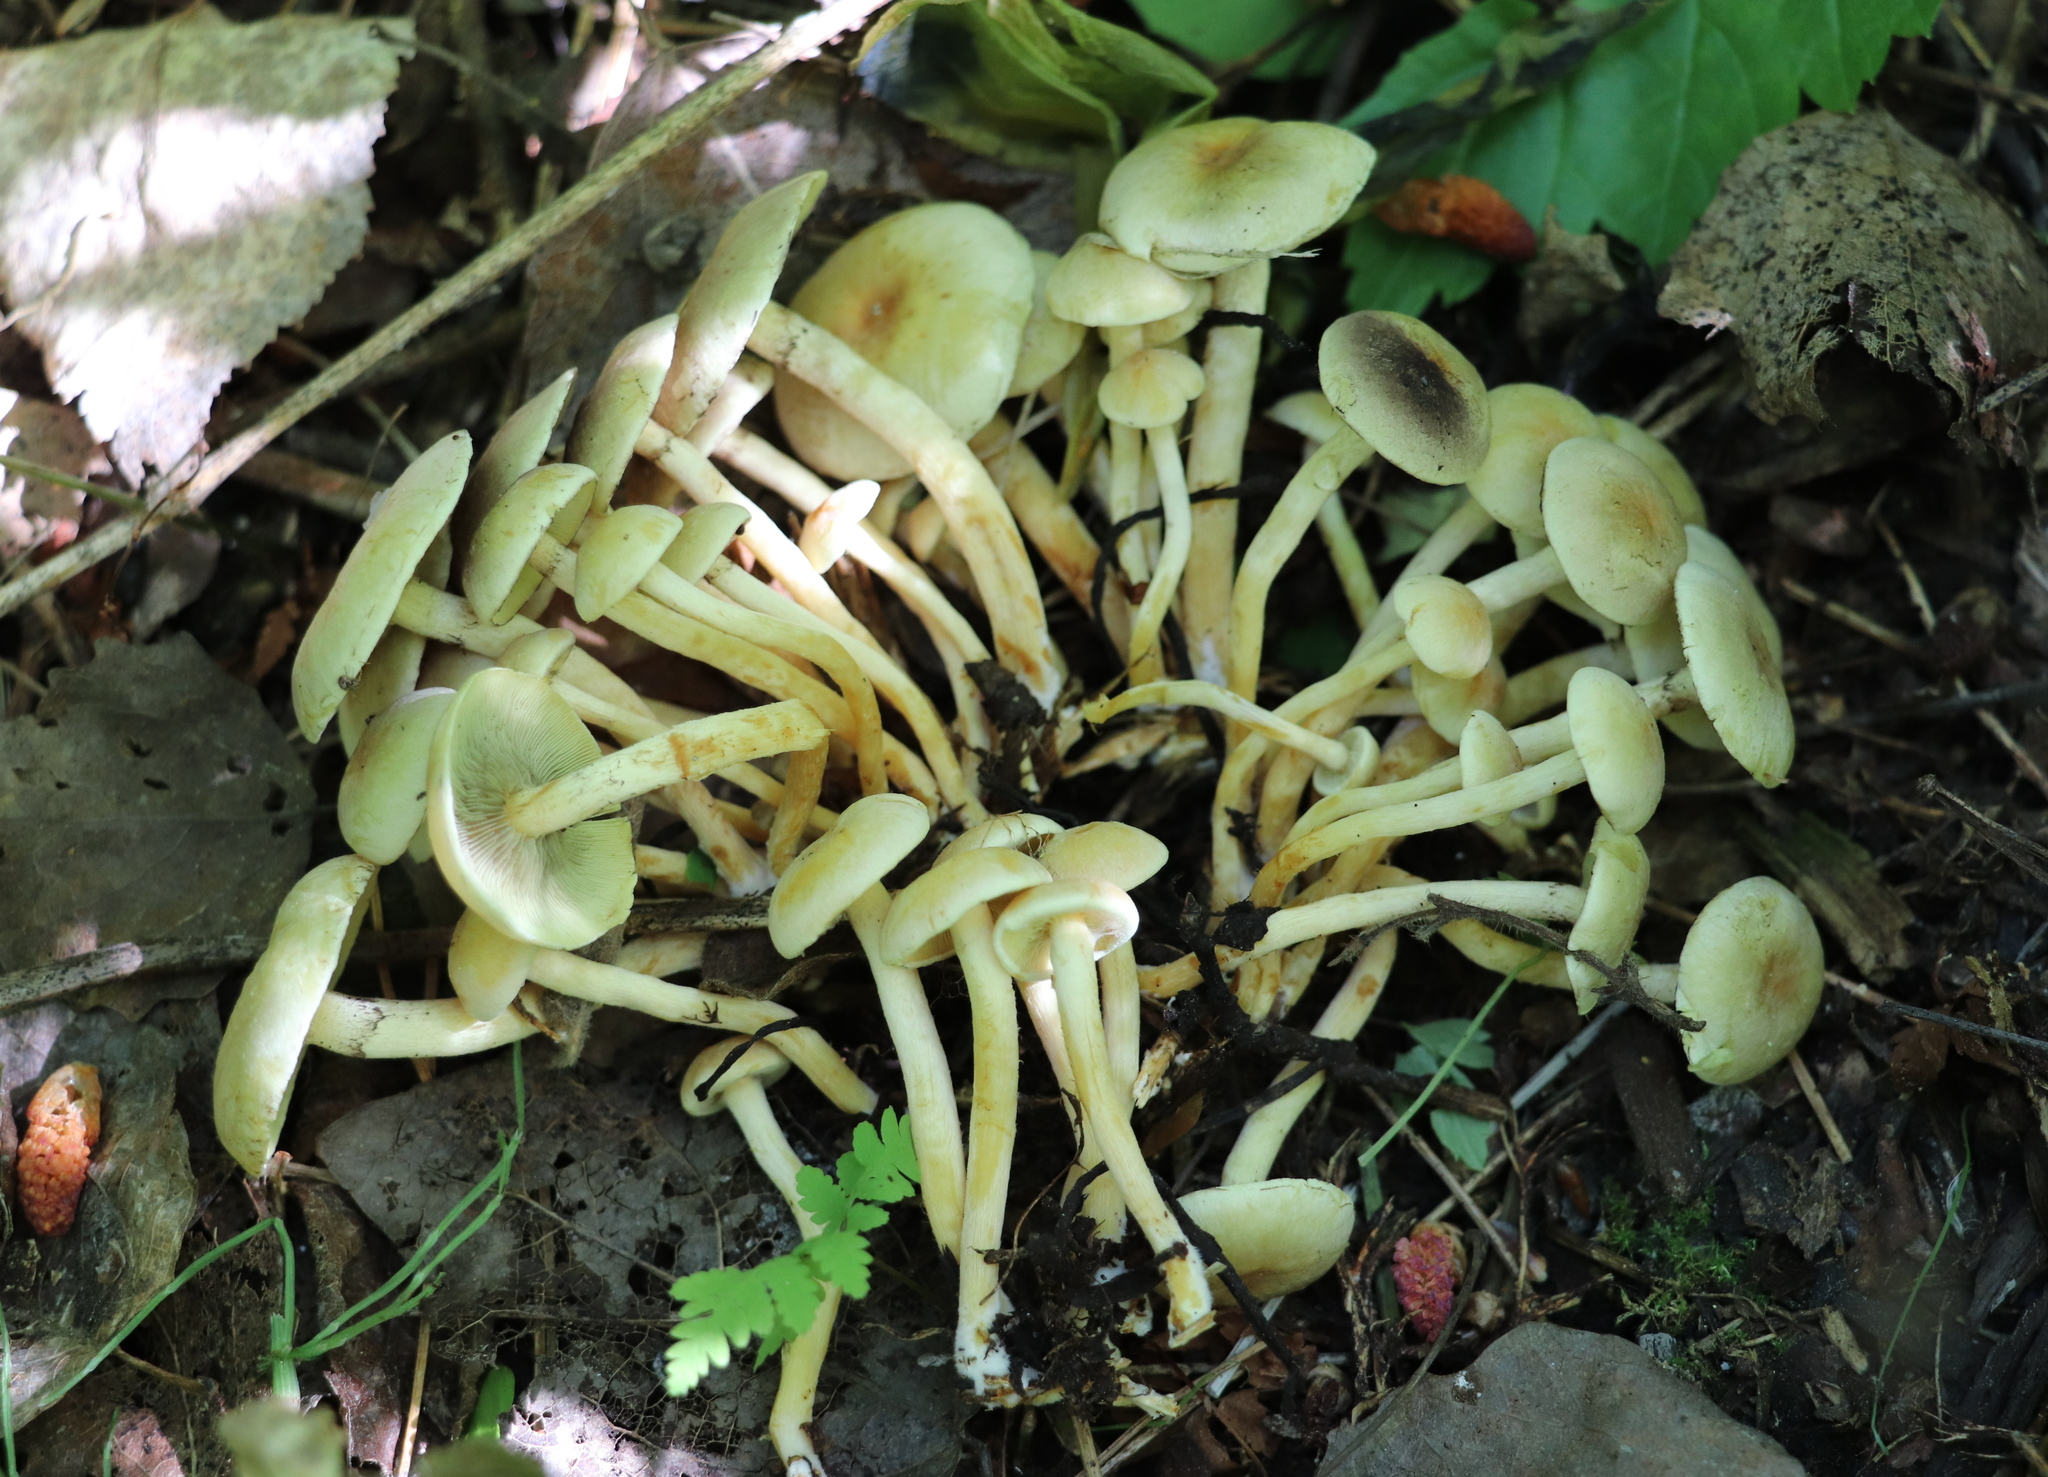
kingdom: Fungi
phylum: Basidiomycota
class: Agaricomycetes
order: Agaricales
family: Strophariaceae
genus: Hypholoma
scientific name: Hypholoma fasciculare
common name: Sulphur tuft
